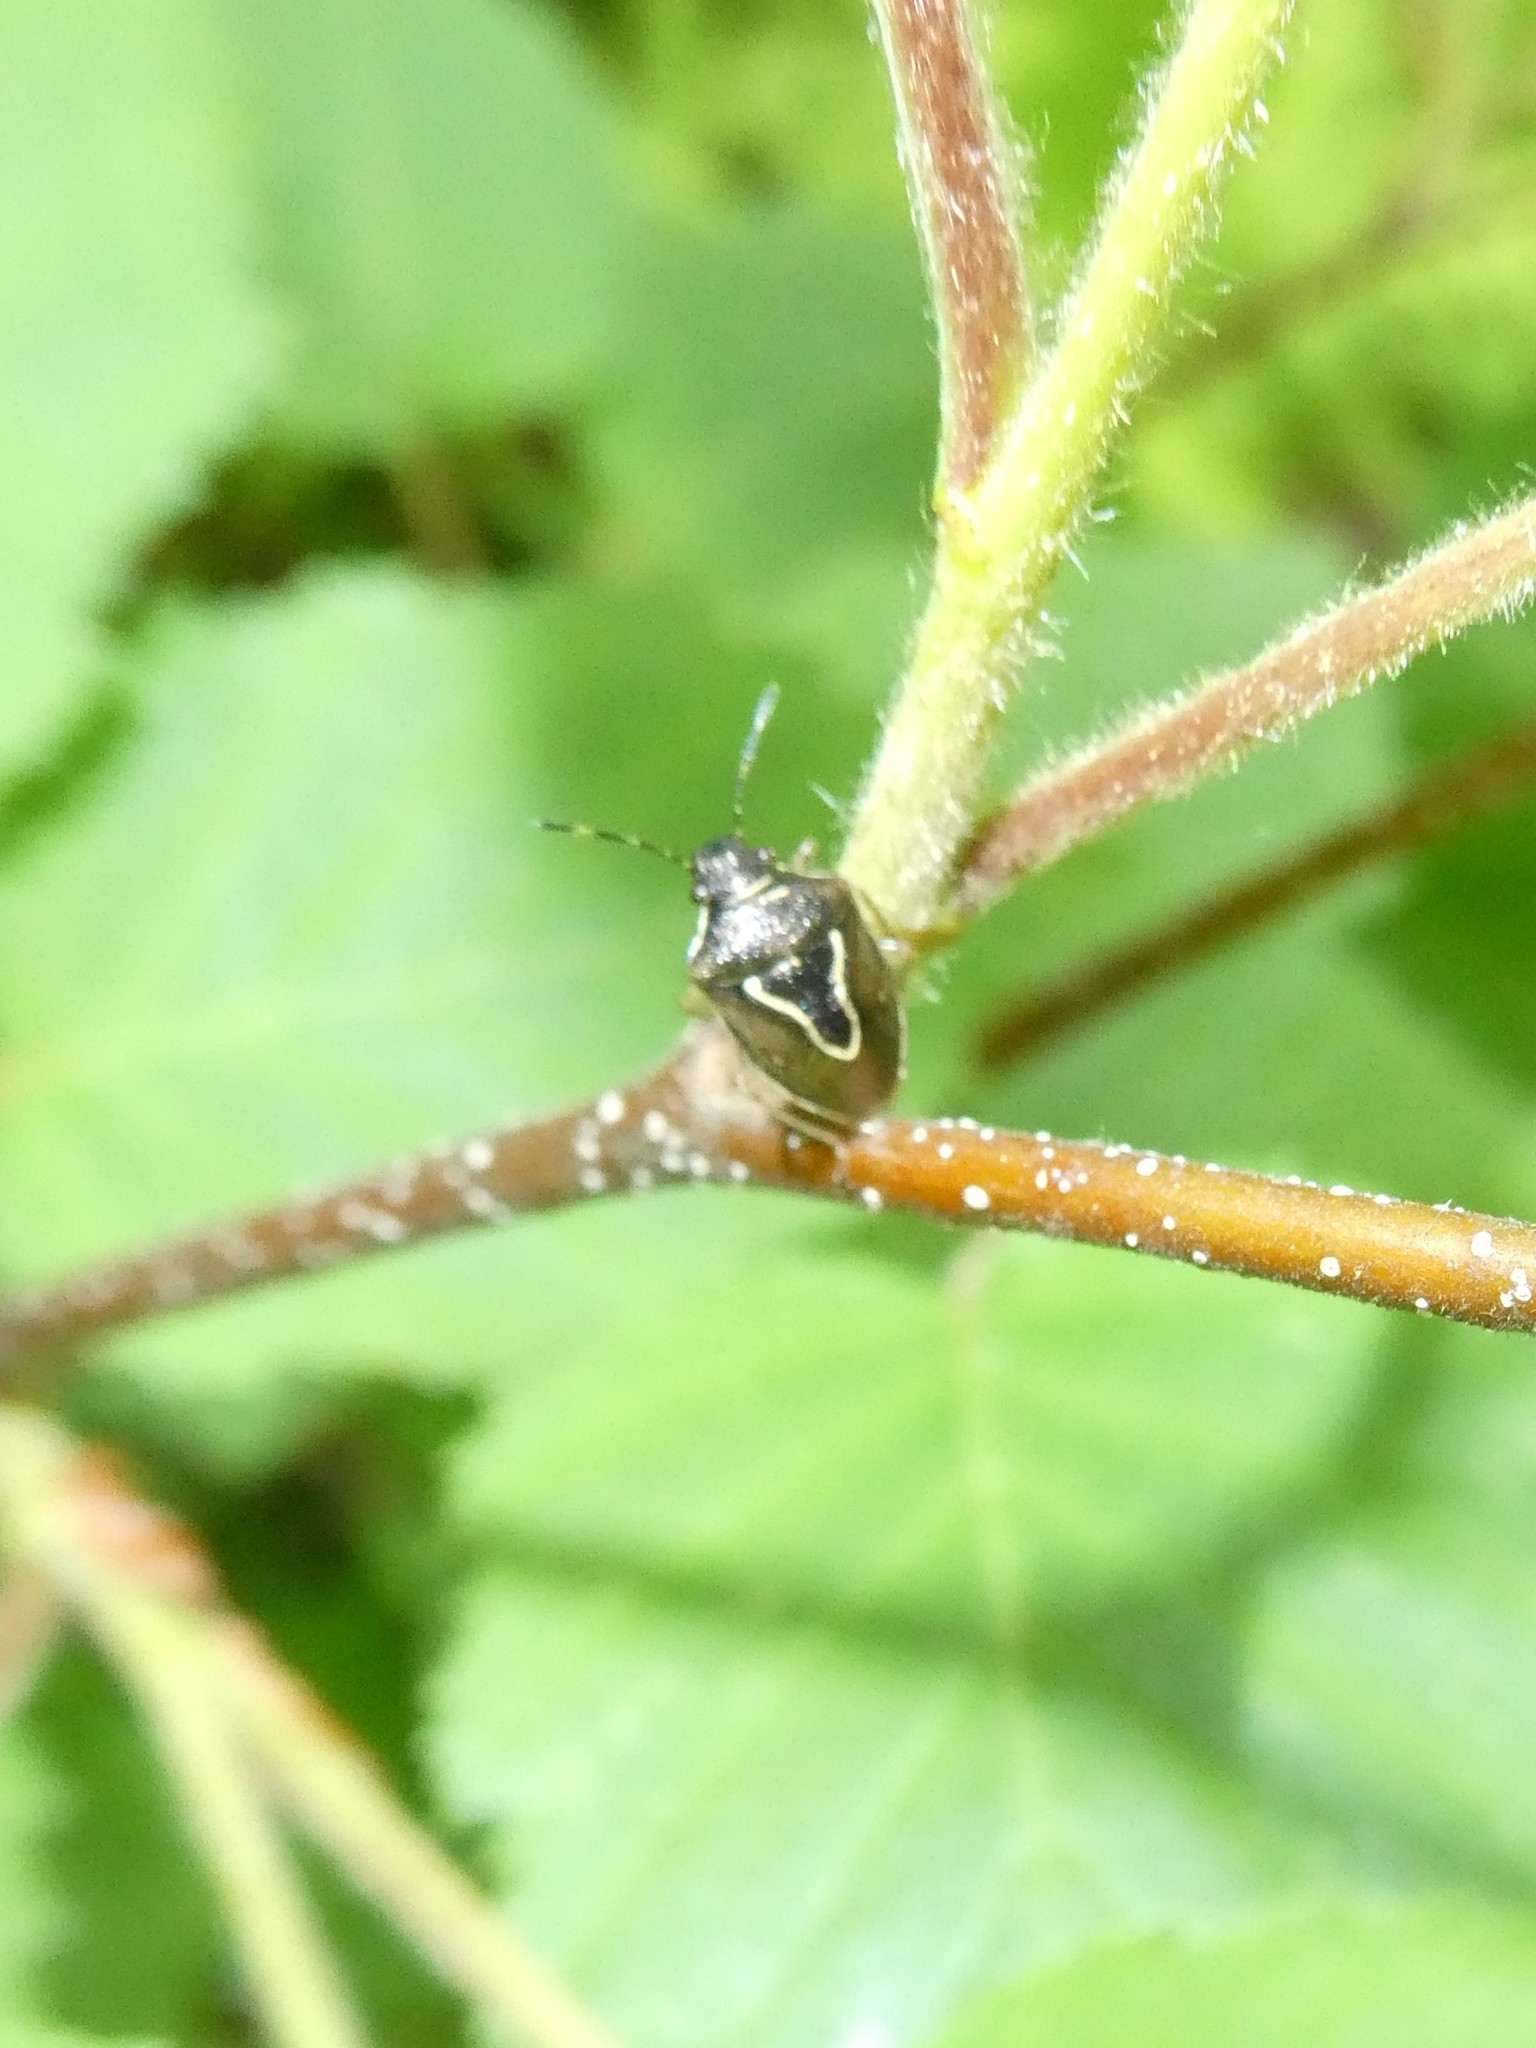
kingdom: Animalia
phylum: Arthropoda
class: Insecta
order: Hemiptera
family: Pentatomidae
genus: Mormidea
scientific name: Mormidea lugens
